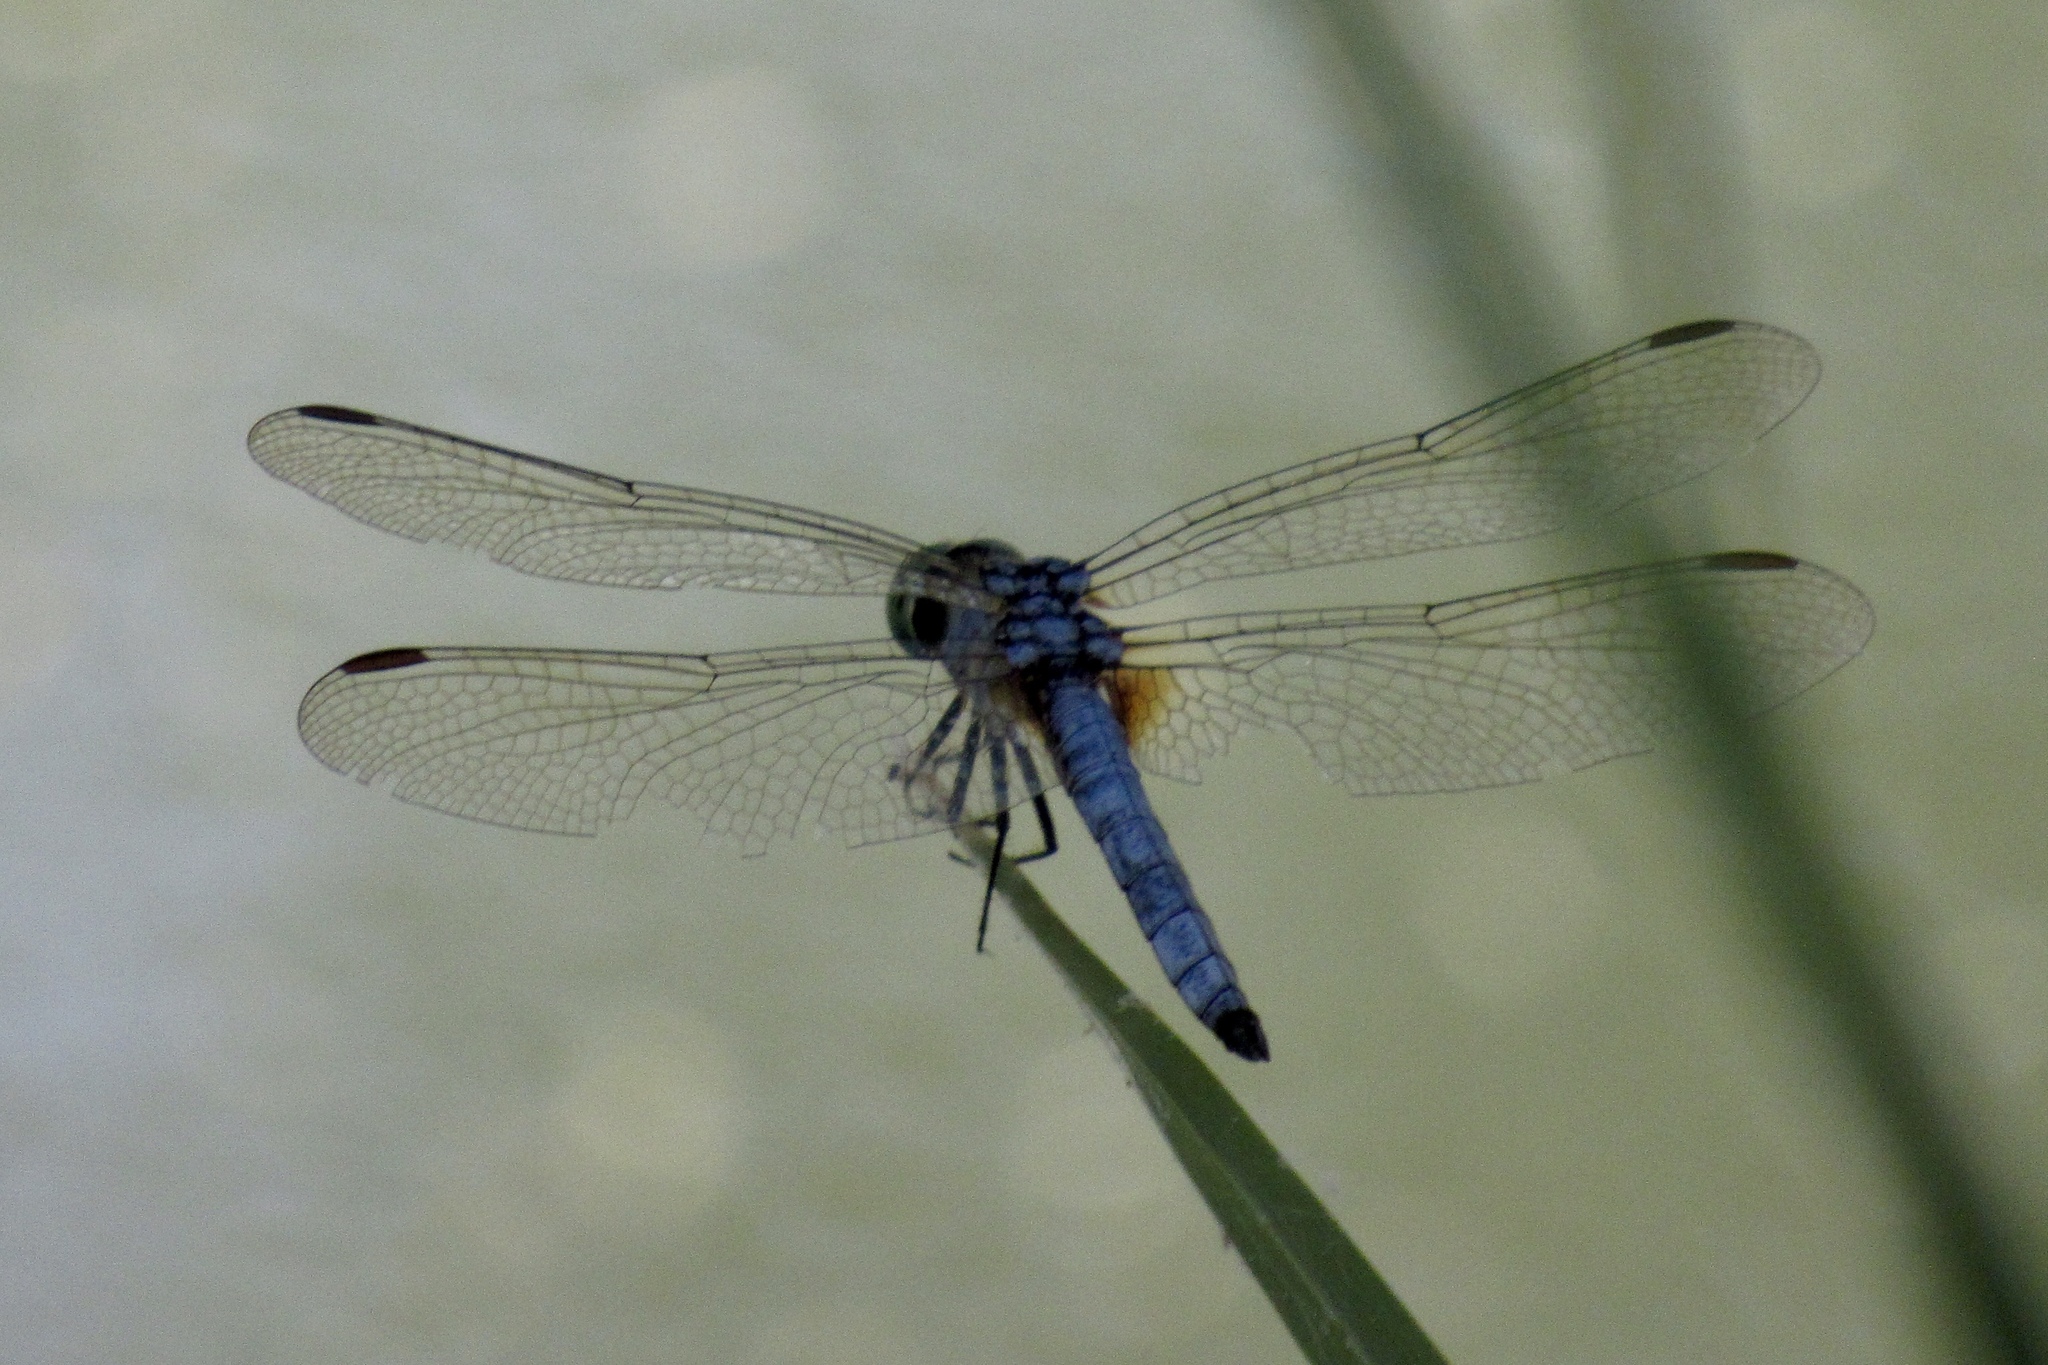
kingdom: Animalia
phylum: Arthropoda
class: Insecta
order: Odonata
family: Libellulidae
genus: Pachydiplax
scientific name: Pachydiplax longipennis
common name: Blue dasher
